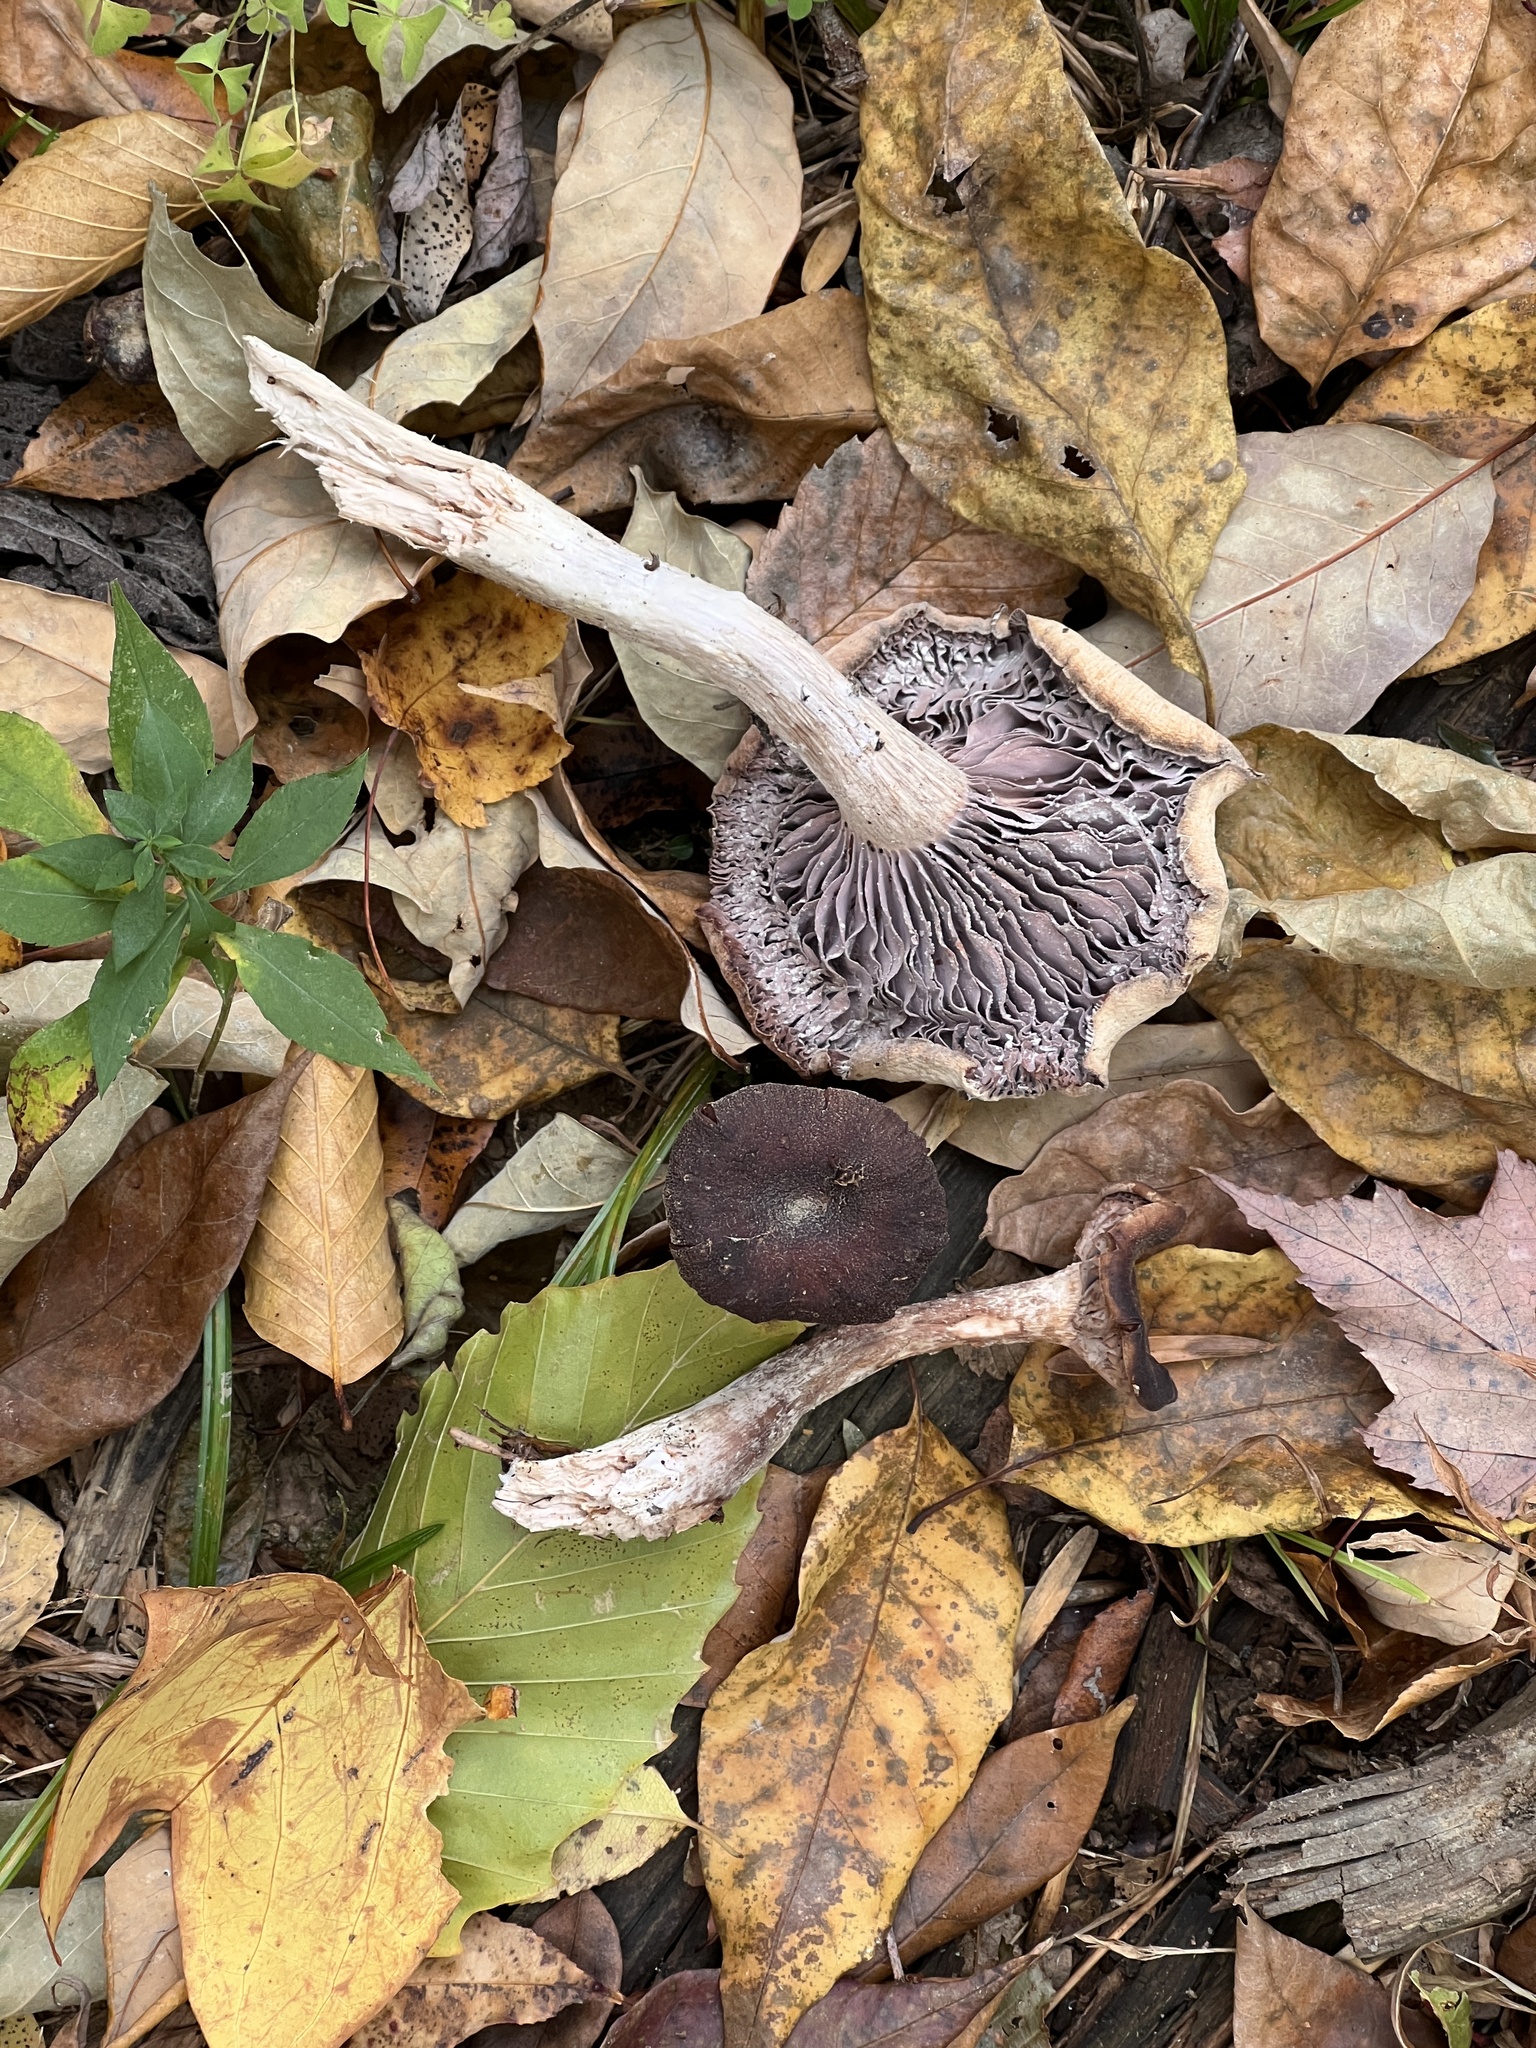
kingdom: Fungi
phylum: Basidiomycota
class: Agaricomycetes
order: Agaricales
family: Hydnangiaceae
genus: Laccaria
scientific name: Laccaria ochropurpurea
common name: Purple laccaria
